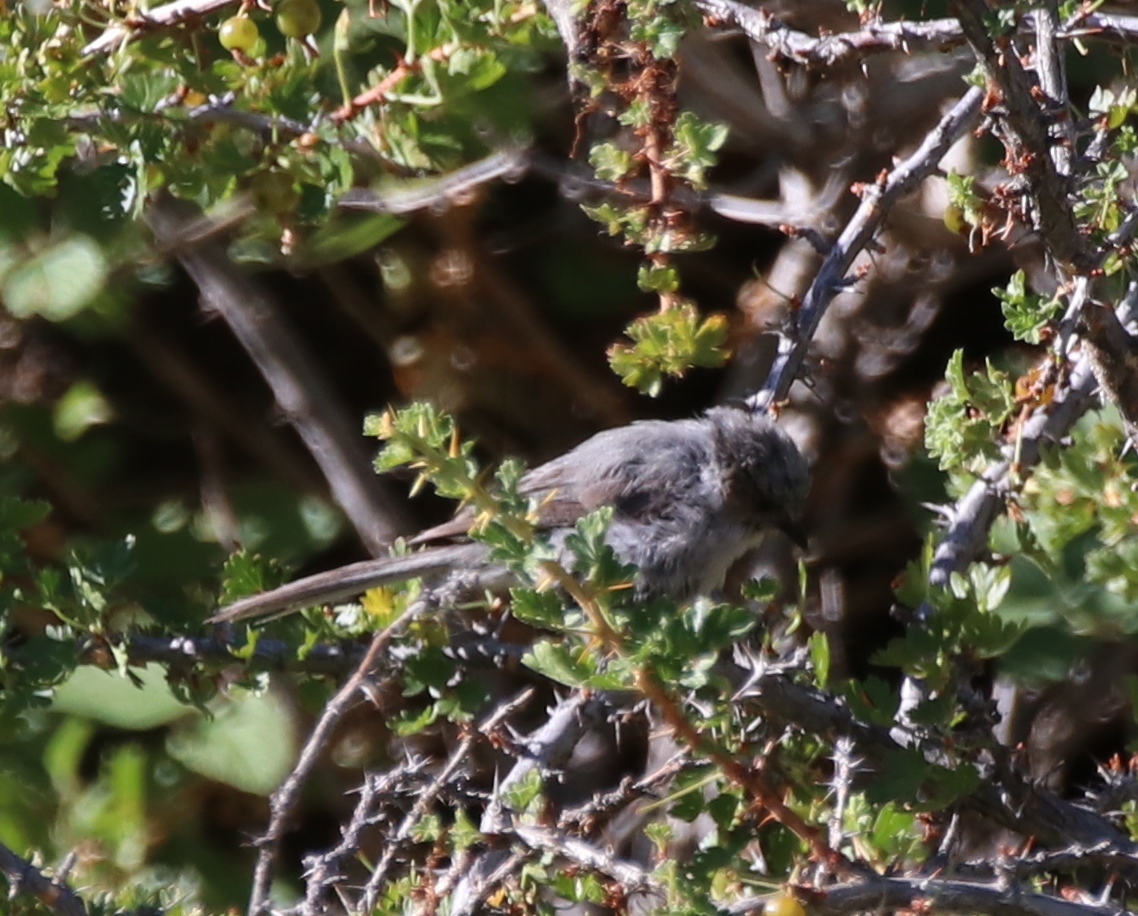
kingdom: Animalia
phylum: Chordata
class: Aves
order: Passeriformes
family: Aegithalidae
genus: Psaltriparus
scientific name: Psaltriparus minimus
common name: American bushtit
